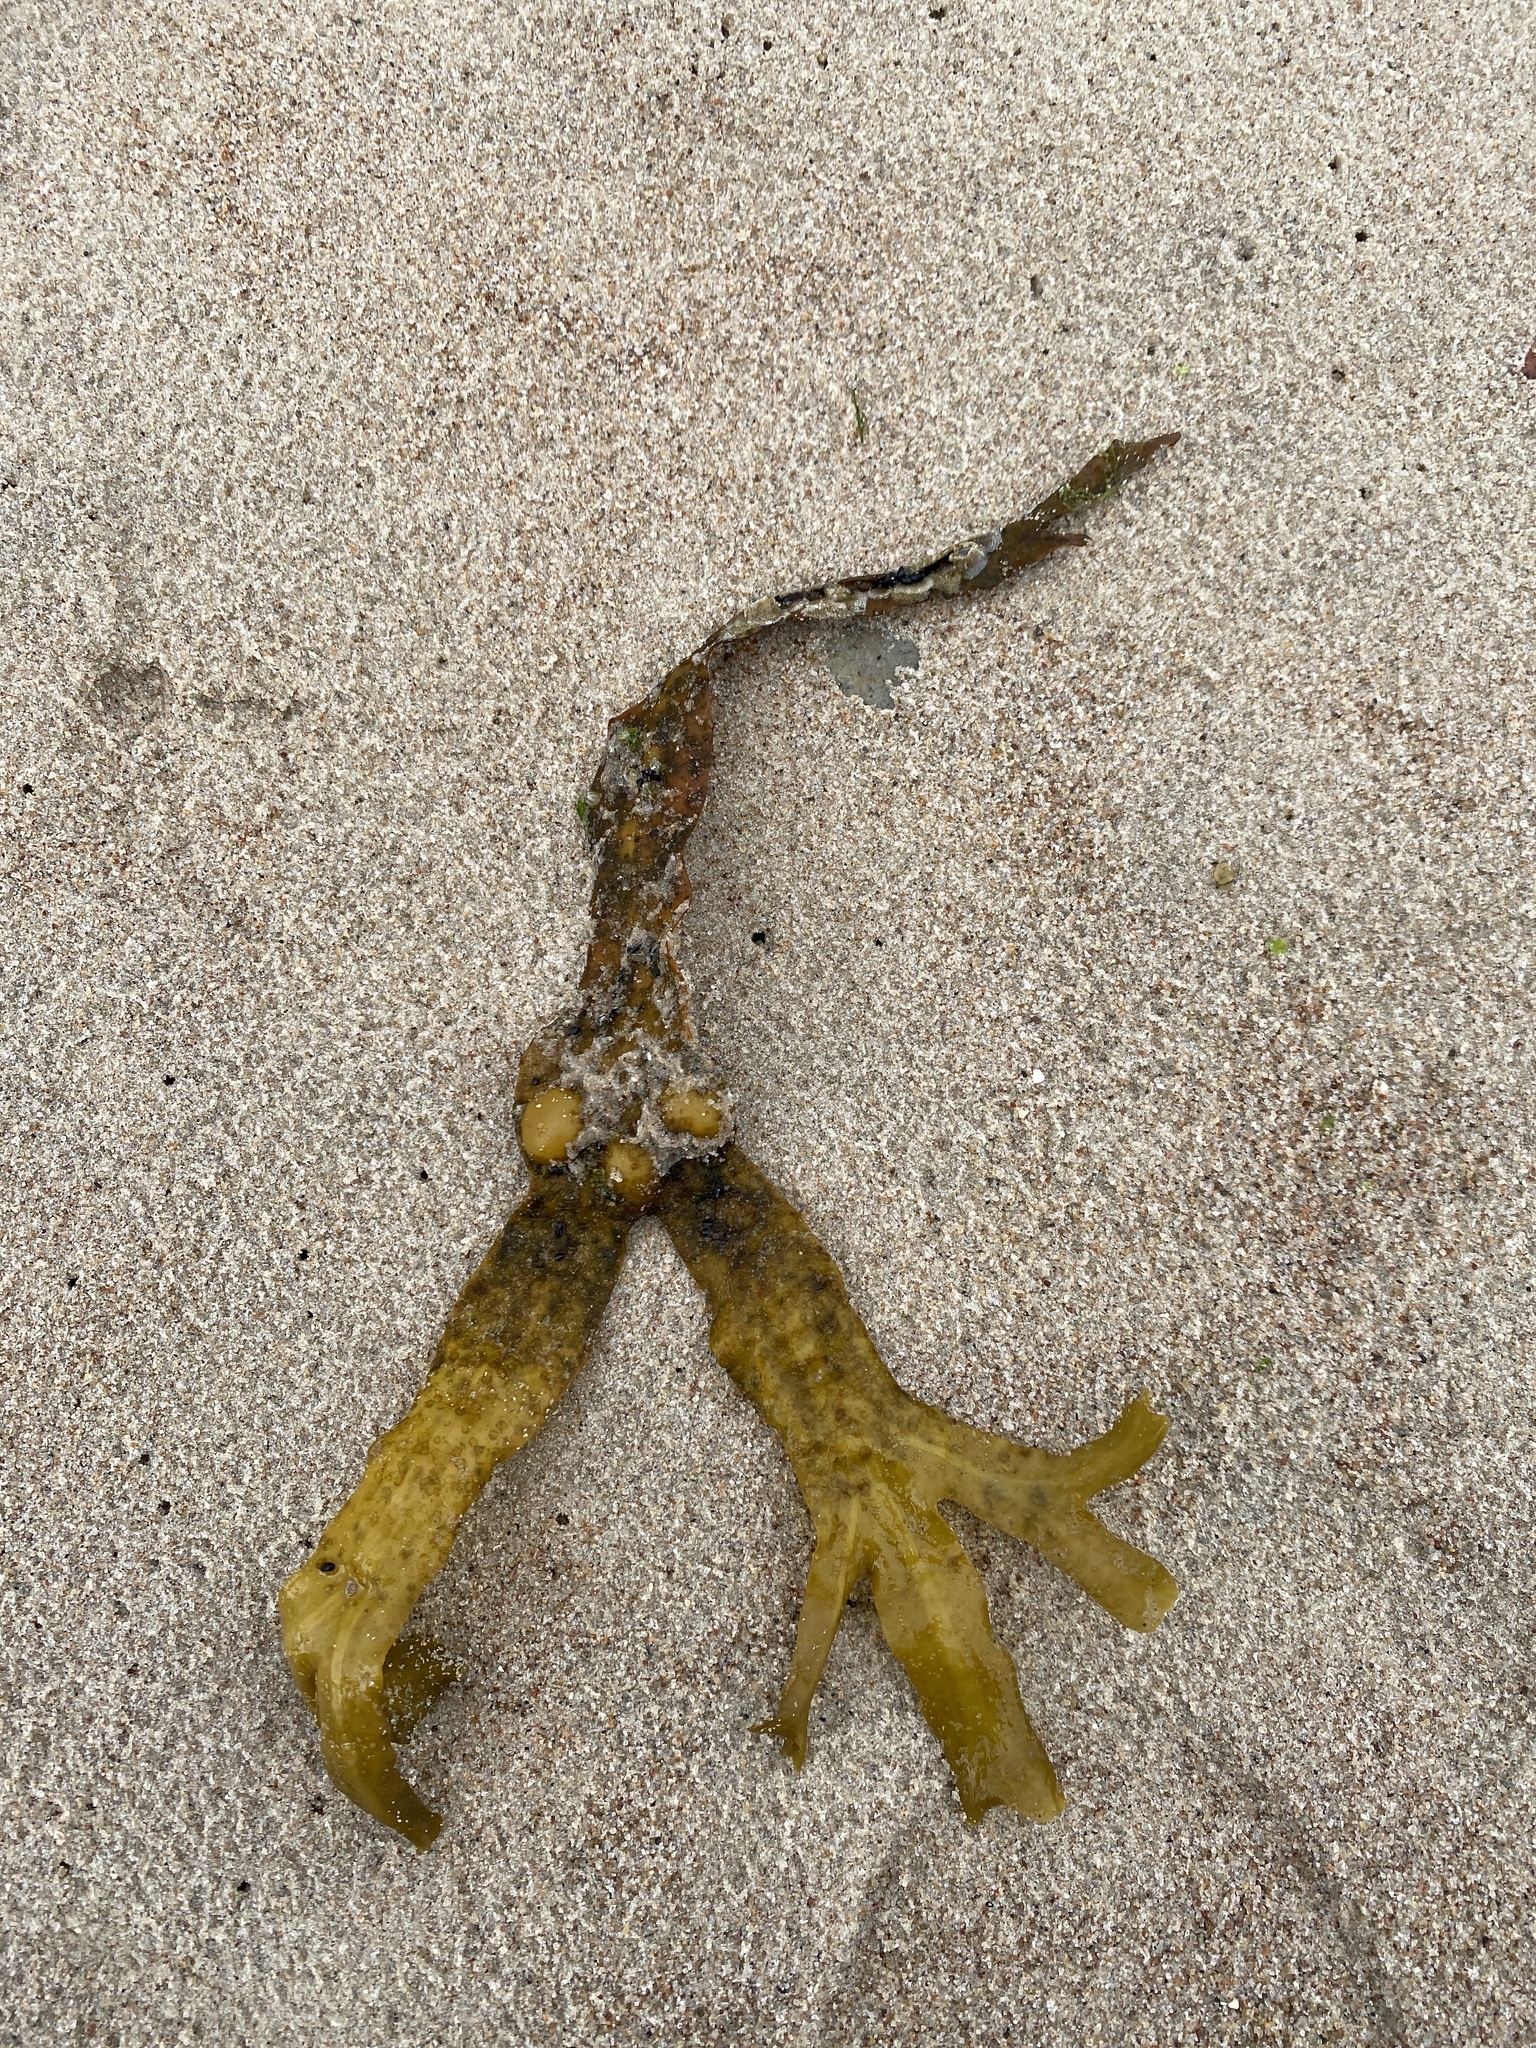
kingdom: Chromista
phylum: Ochrophyta
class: Phaeophyceae
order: Fucales
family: Fucaceae
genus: Fucus
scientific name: Fucus vesiculosus
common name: Bladder wrack
